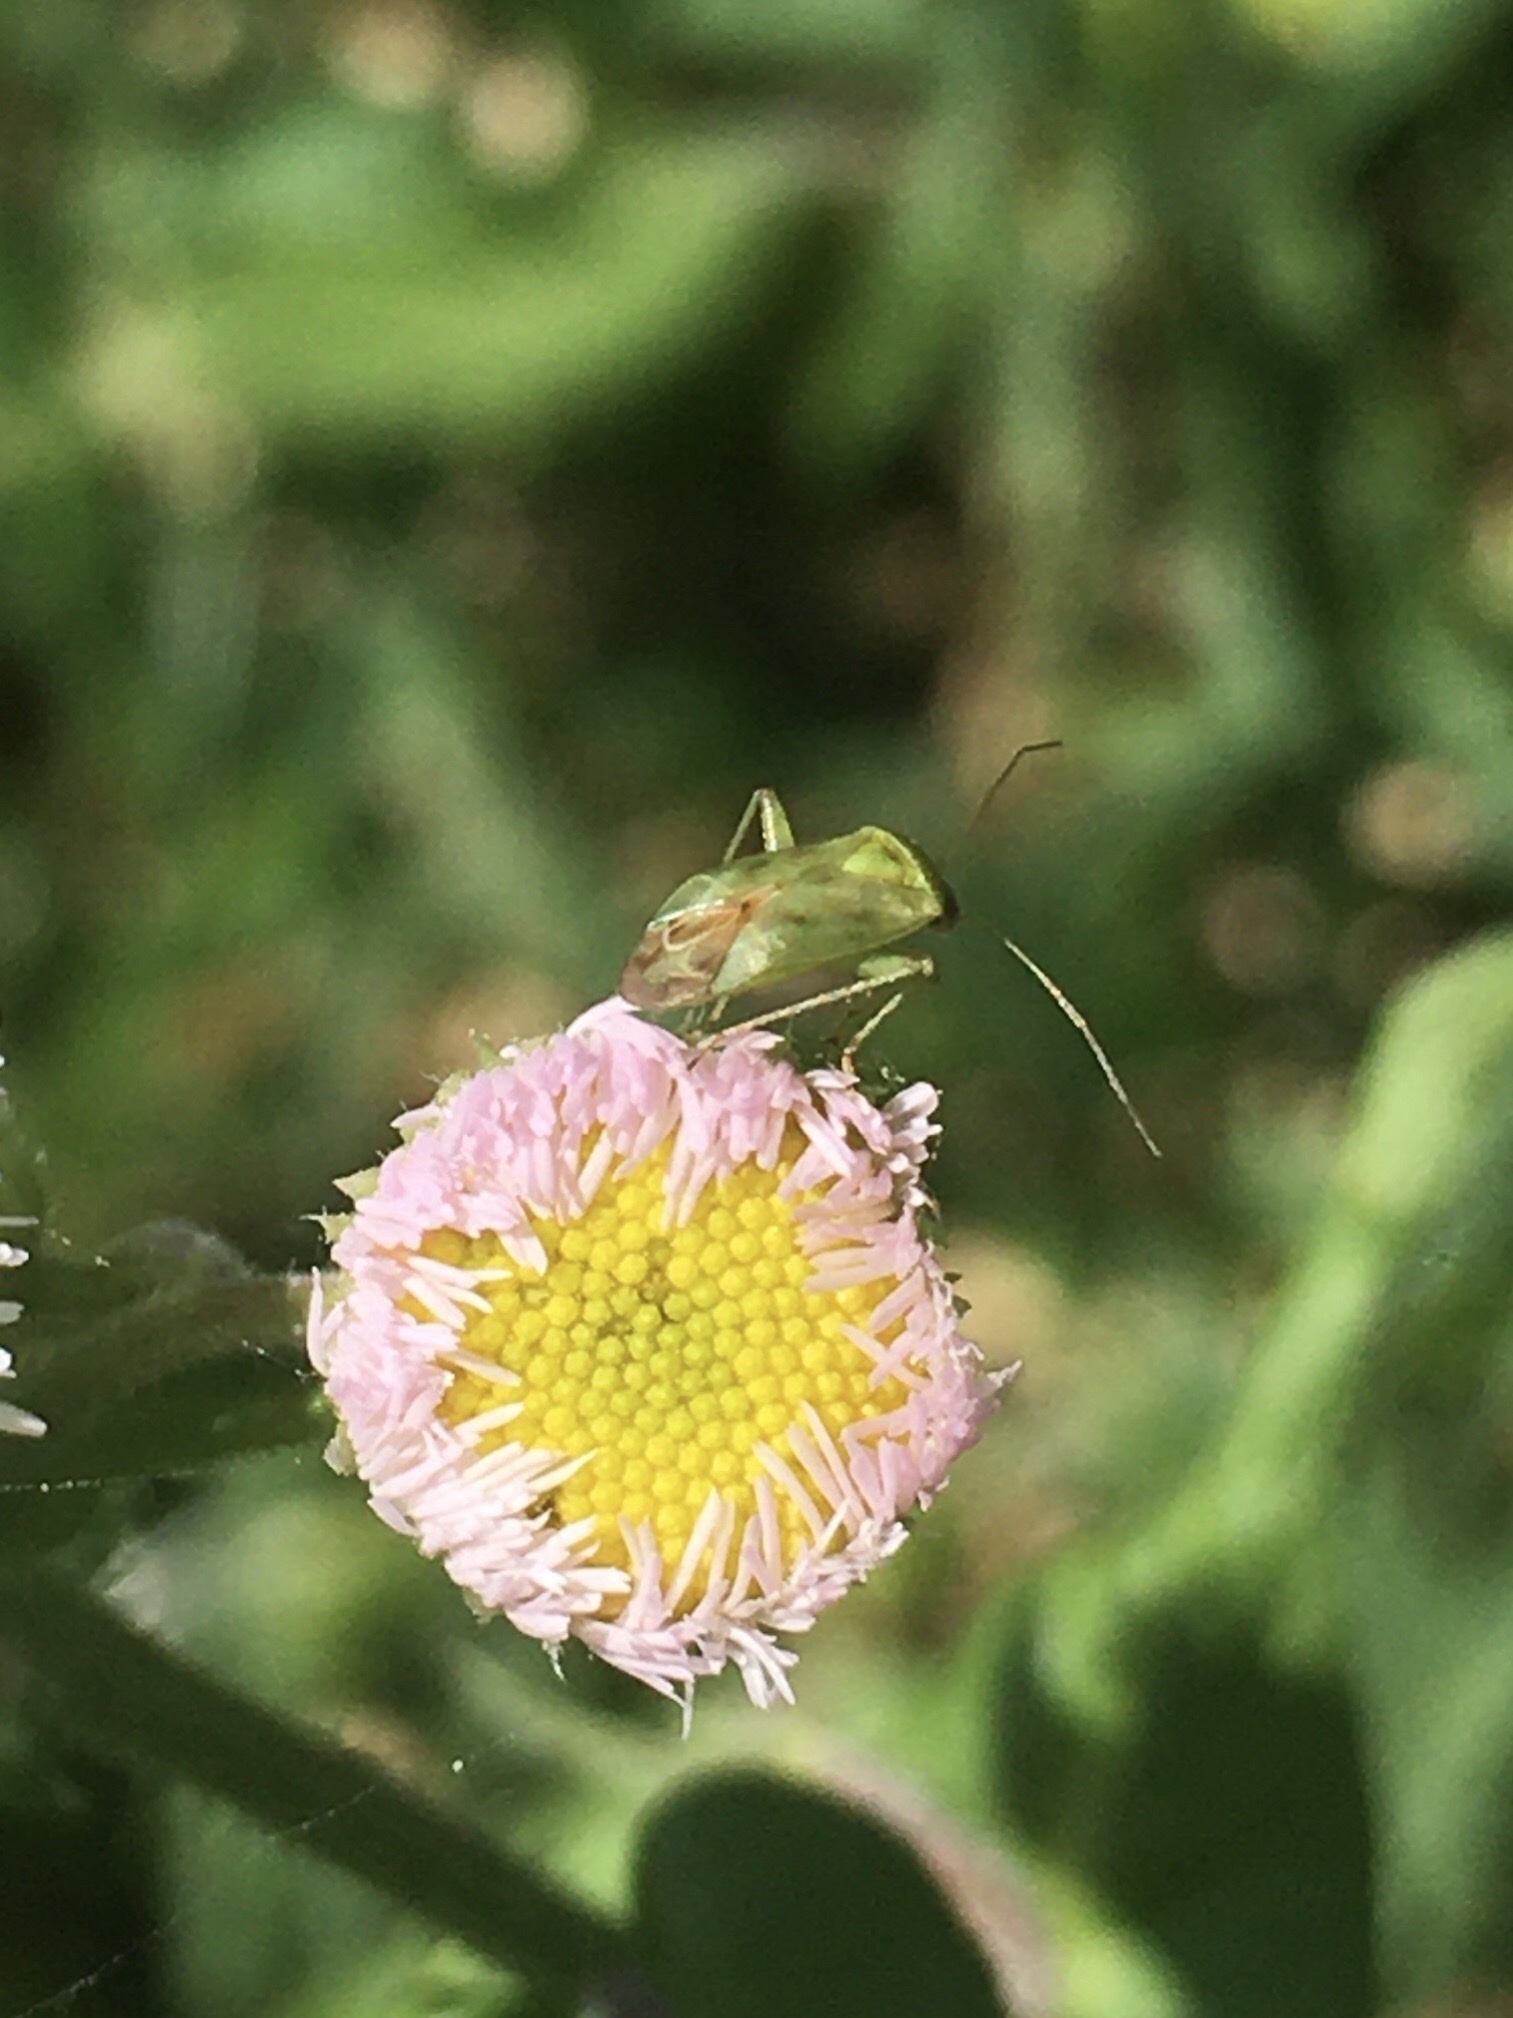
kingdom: Animalia
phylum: Arthropoda
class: Insecta
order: Hemiptera
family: Miridae
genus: Taylorilygus
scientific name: Taylorilygus apicalis
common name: Plant bug
